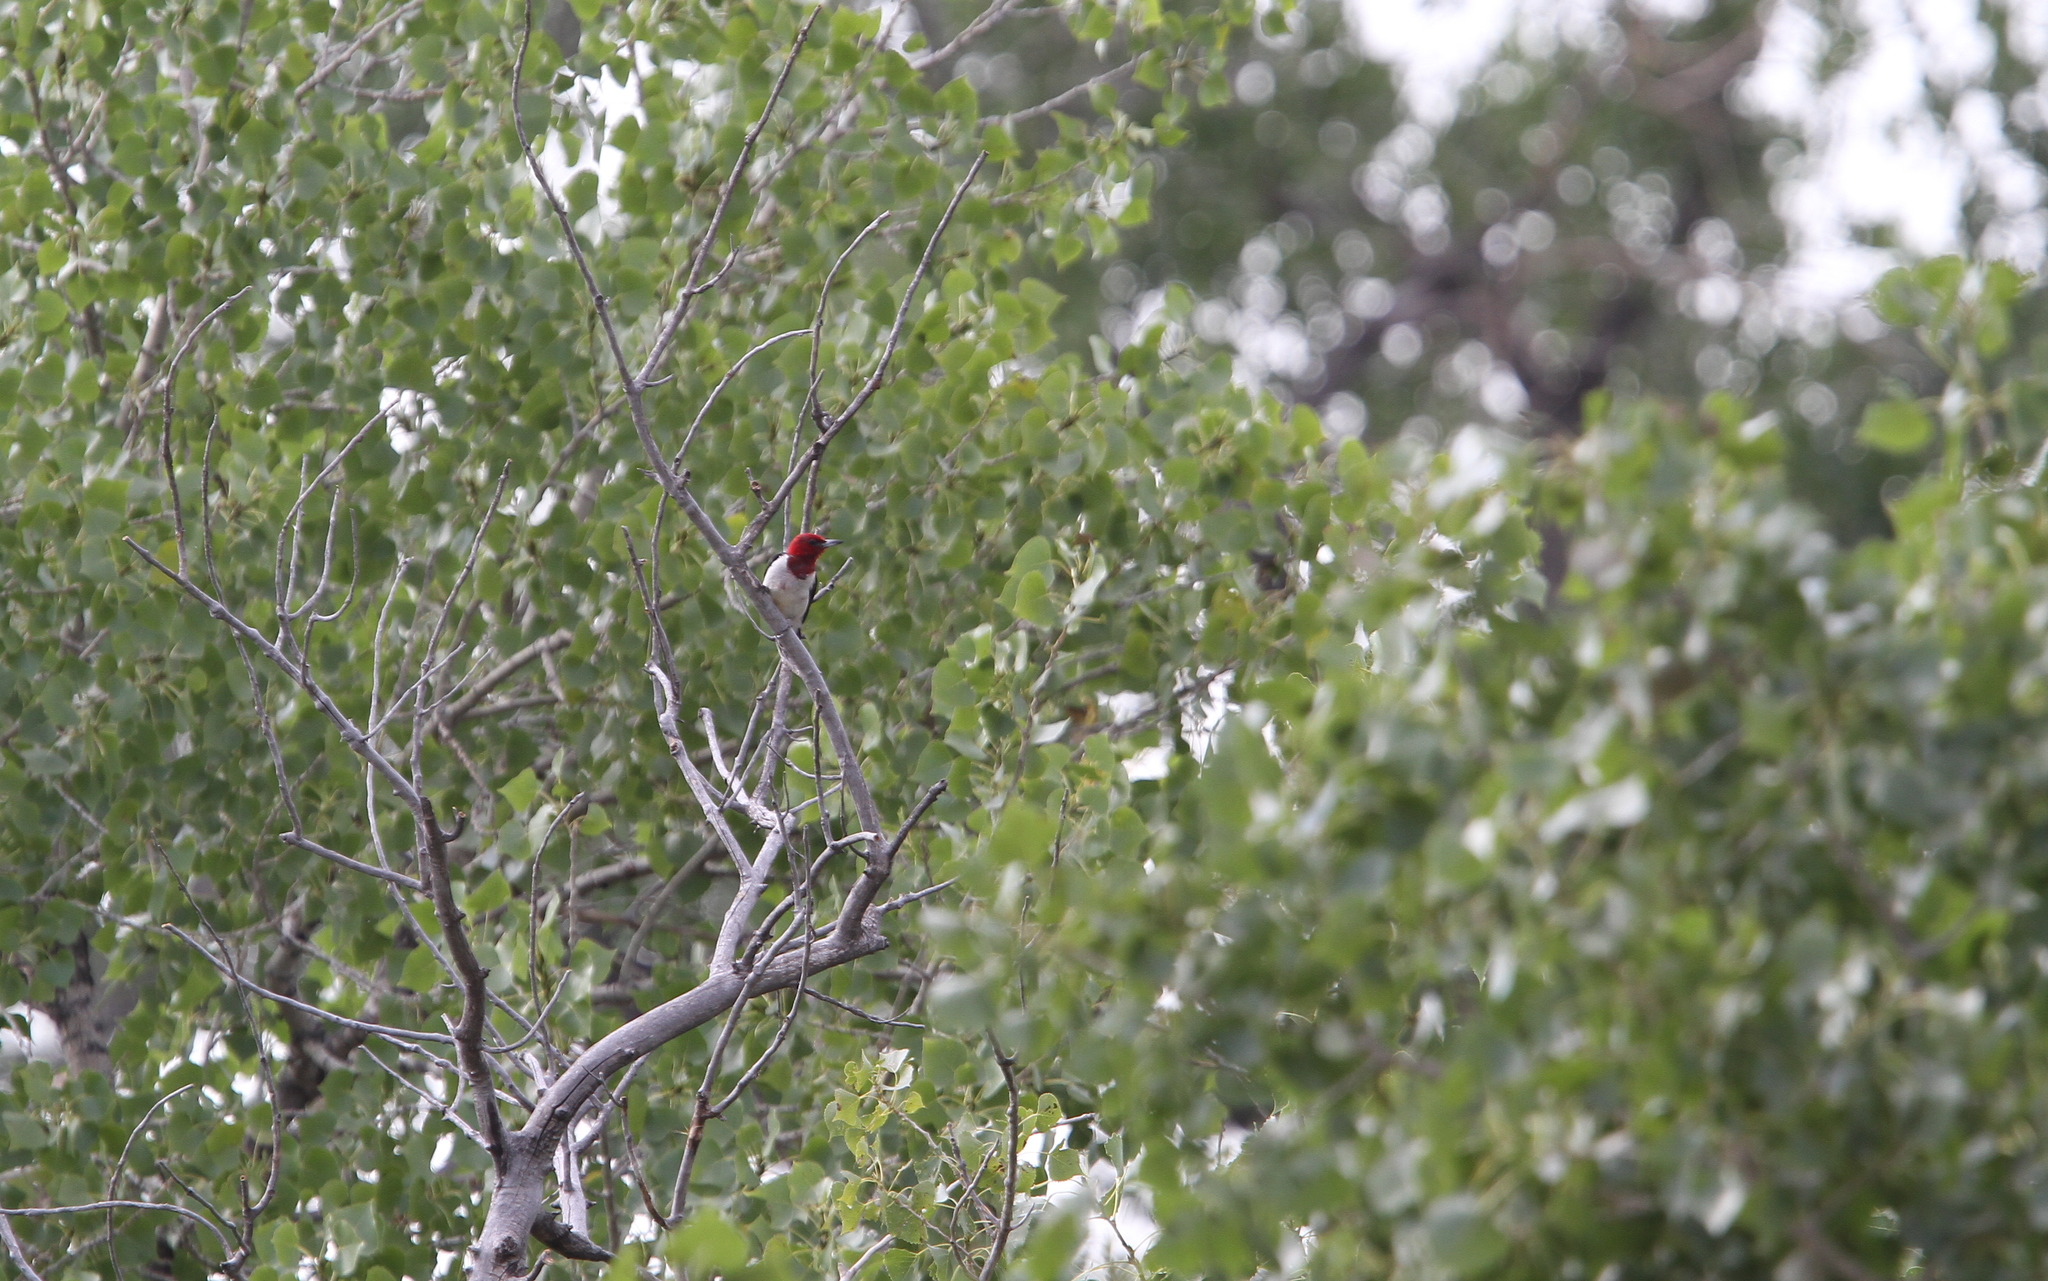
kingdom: Animalia
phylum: Chordata
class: Aves
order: Piciformes
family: Picidae
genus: Melanerpes
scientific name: Melanerpes erythrocephalus
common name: Red-headed woodpecker
